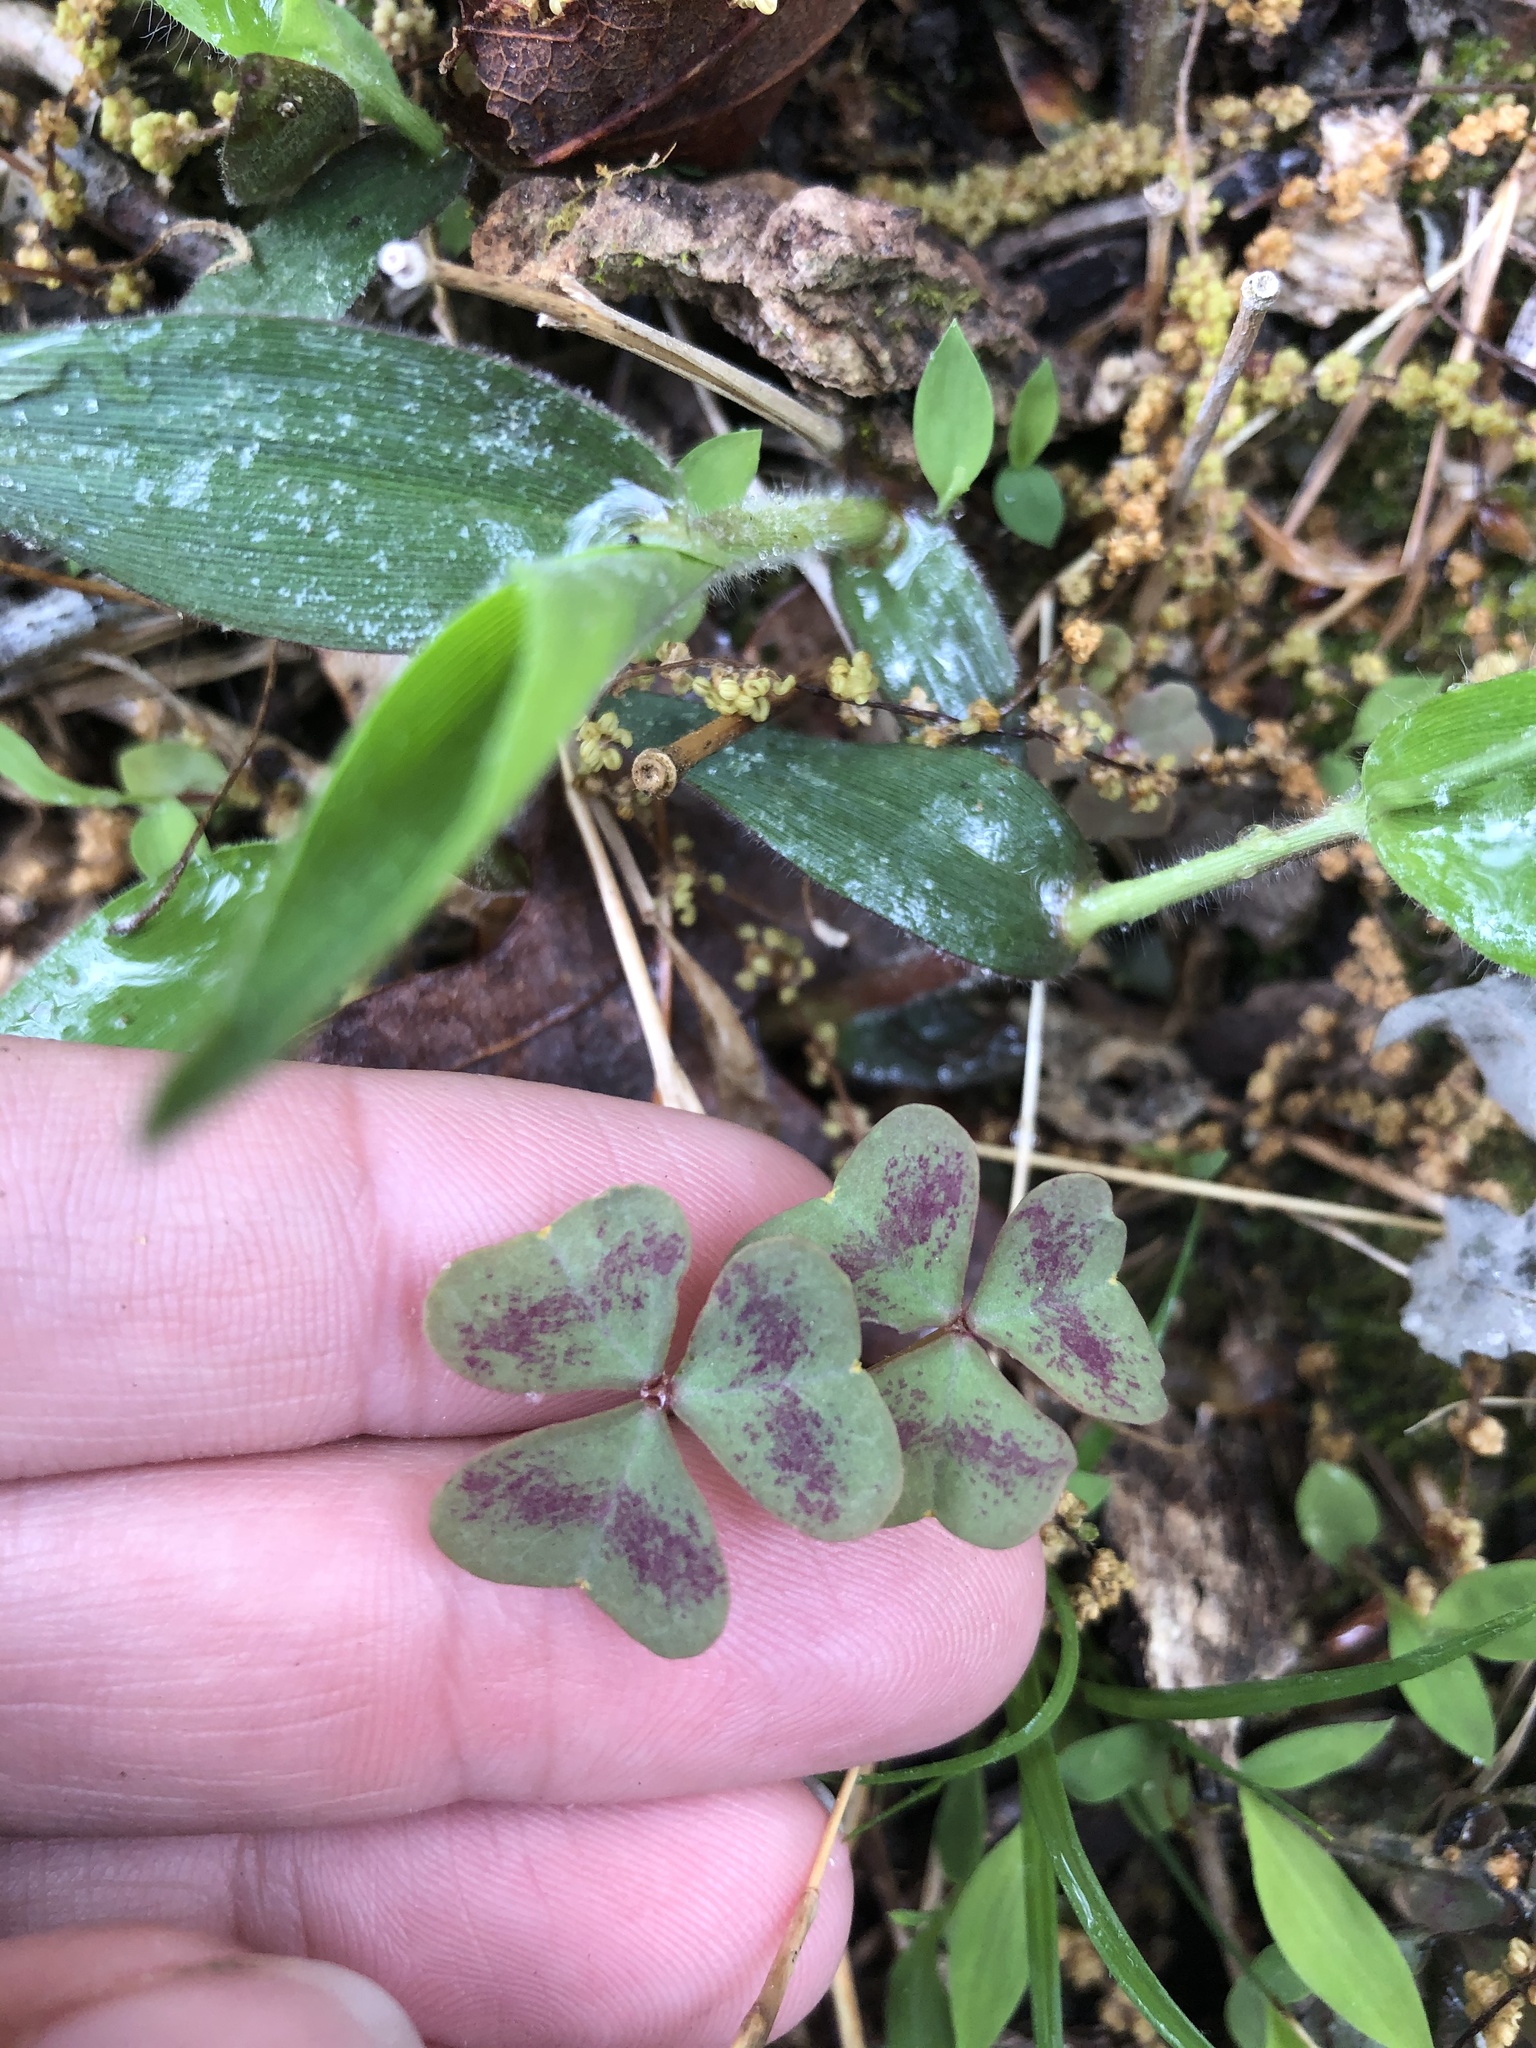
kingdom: Plantae
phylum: Tracheophyta
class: Magnoliopsida
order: Oxalidales
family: Oxalidaceae
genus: Oxalis
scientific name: Oxalis violacea
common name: Violet wood-sorrel
